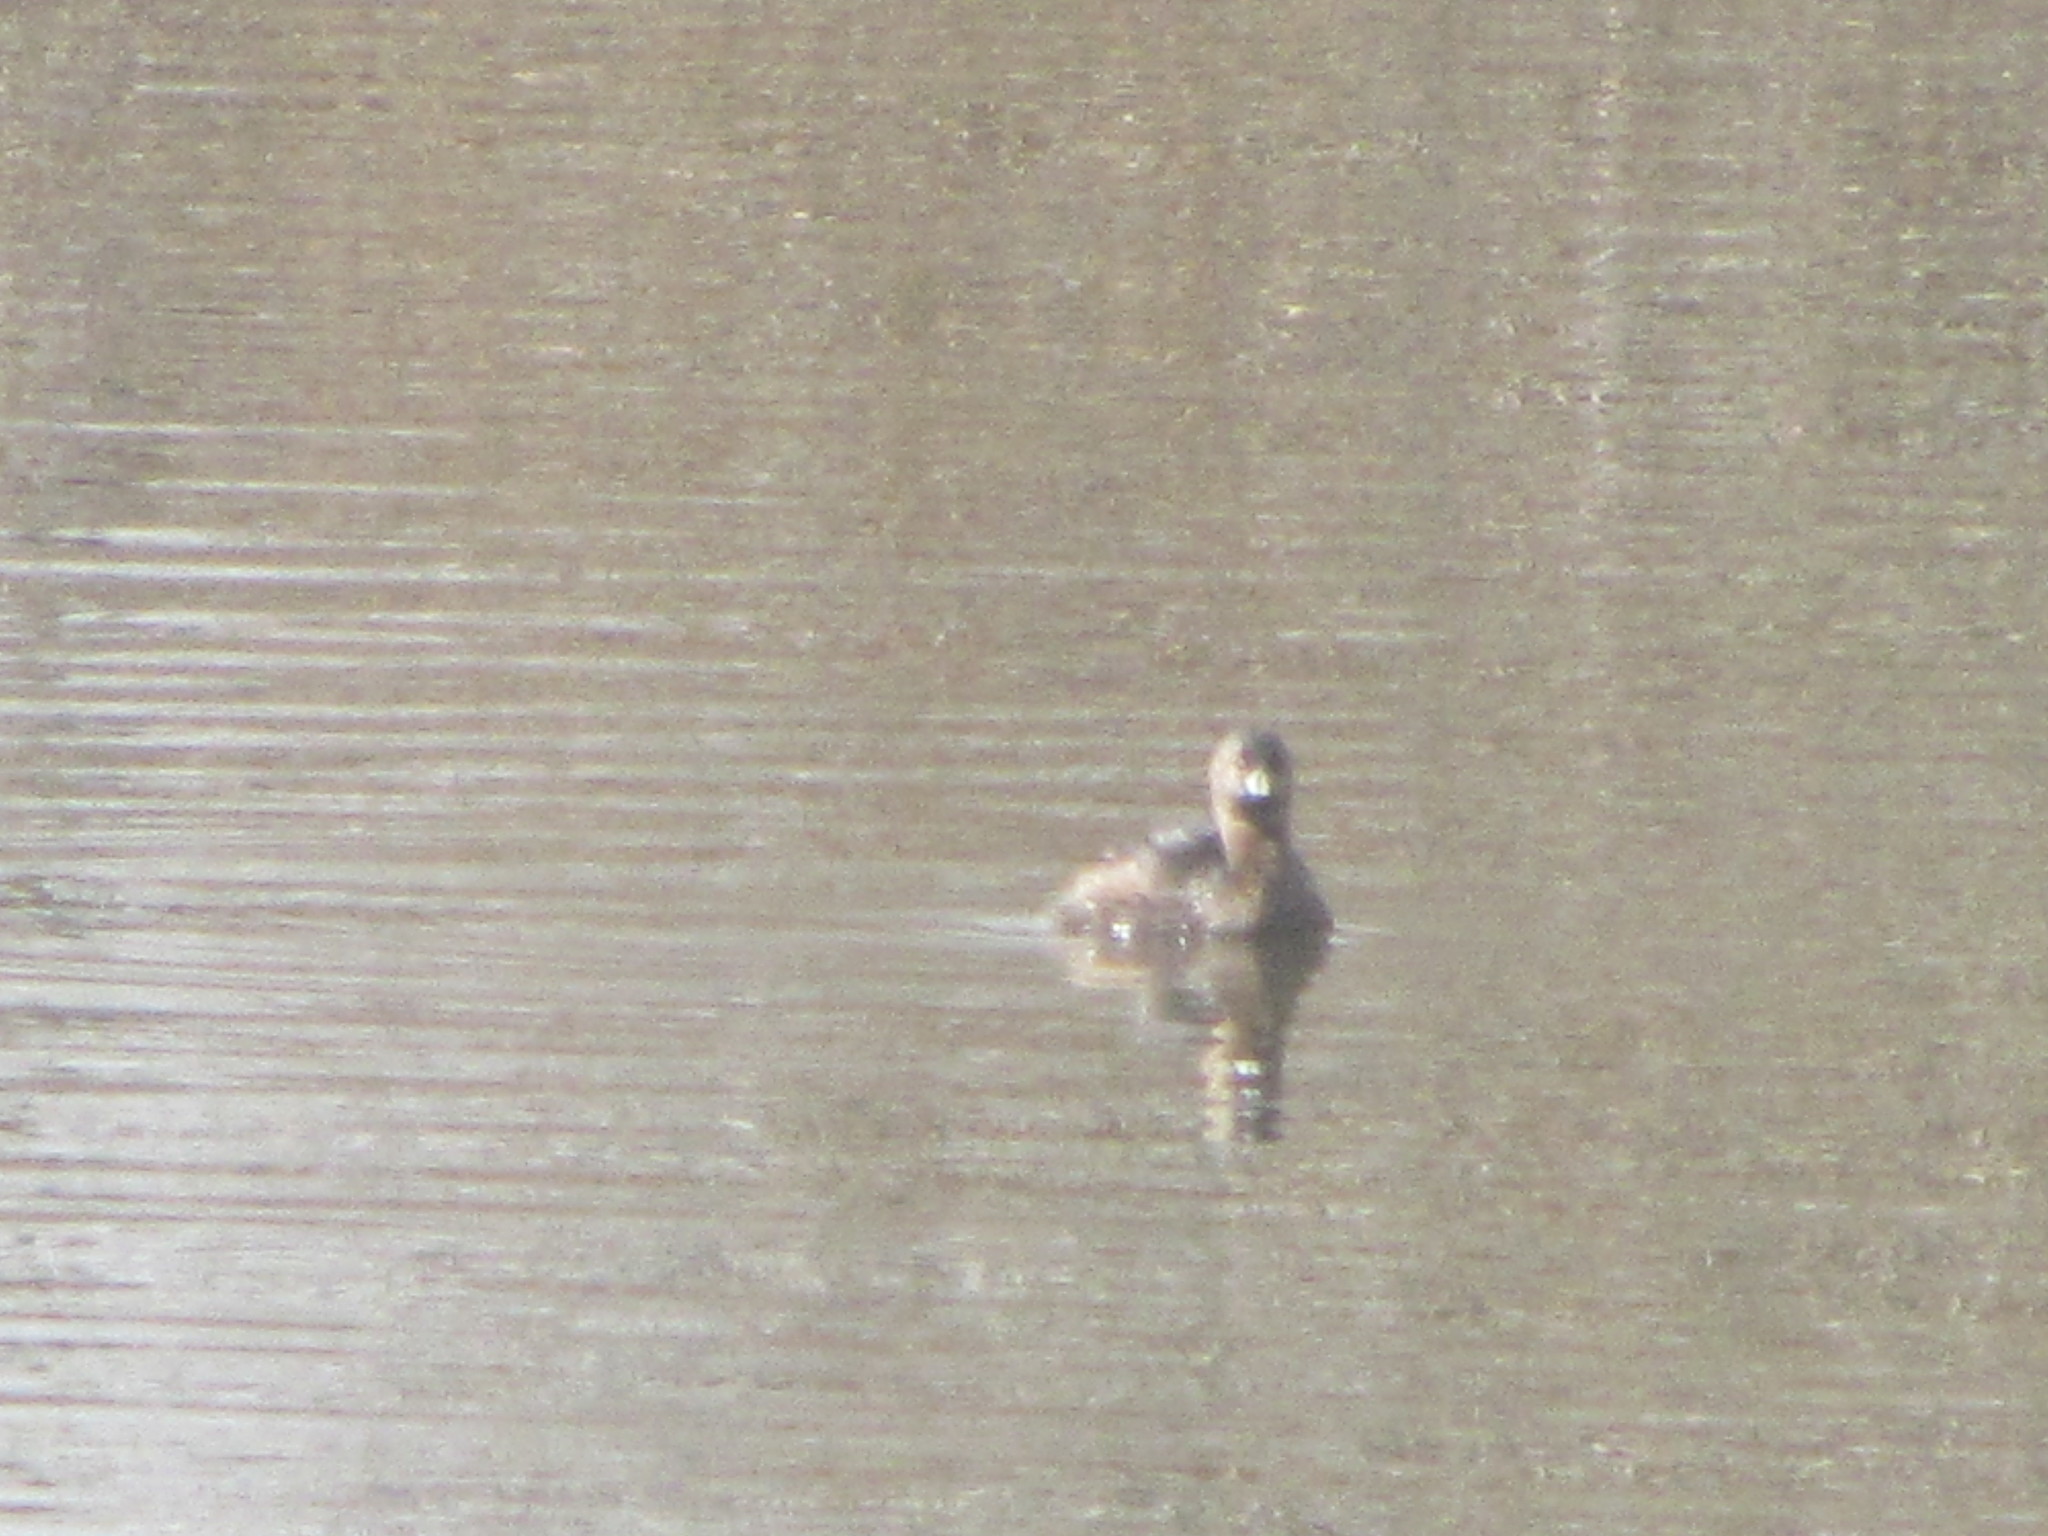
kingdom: Animalia
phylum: Chordata
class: Aves
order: Podicipediformes
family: Podicipedidae
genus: Podilymbus
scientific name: Podilymbus podiceps
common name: Pied-billed grebe
